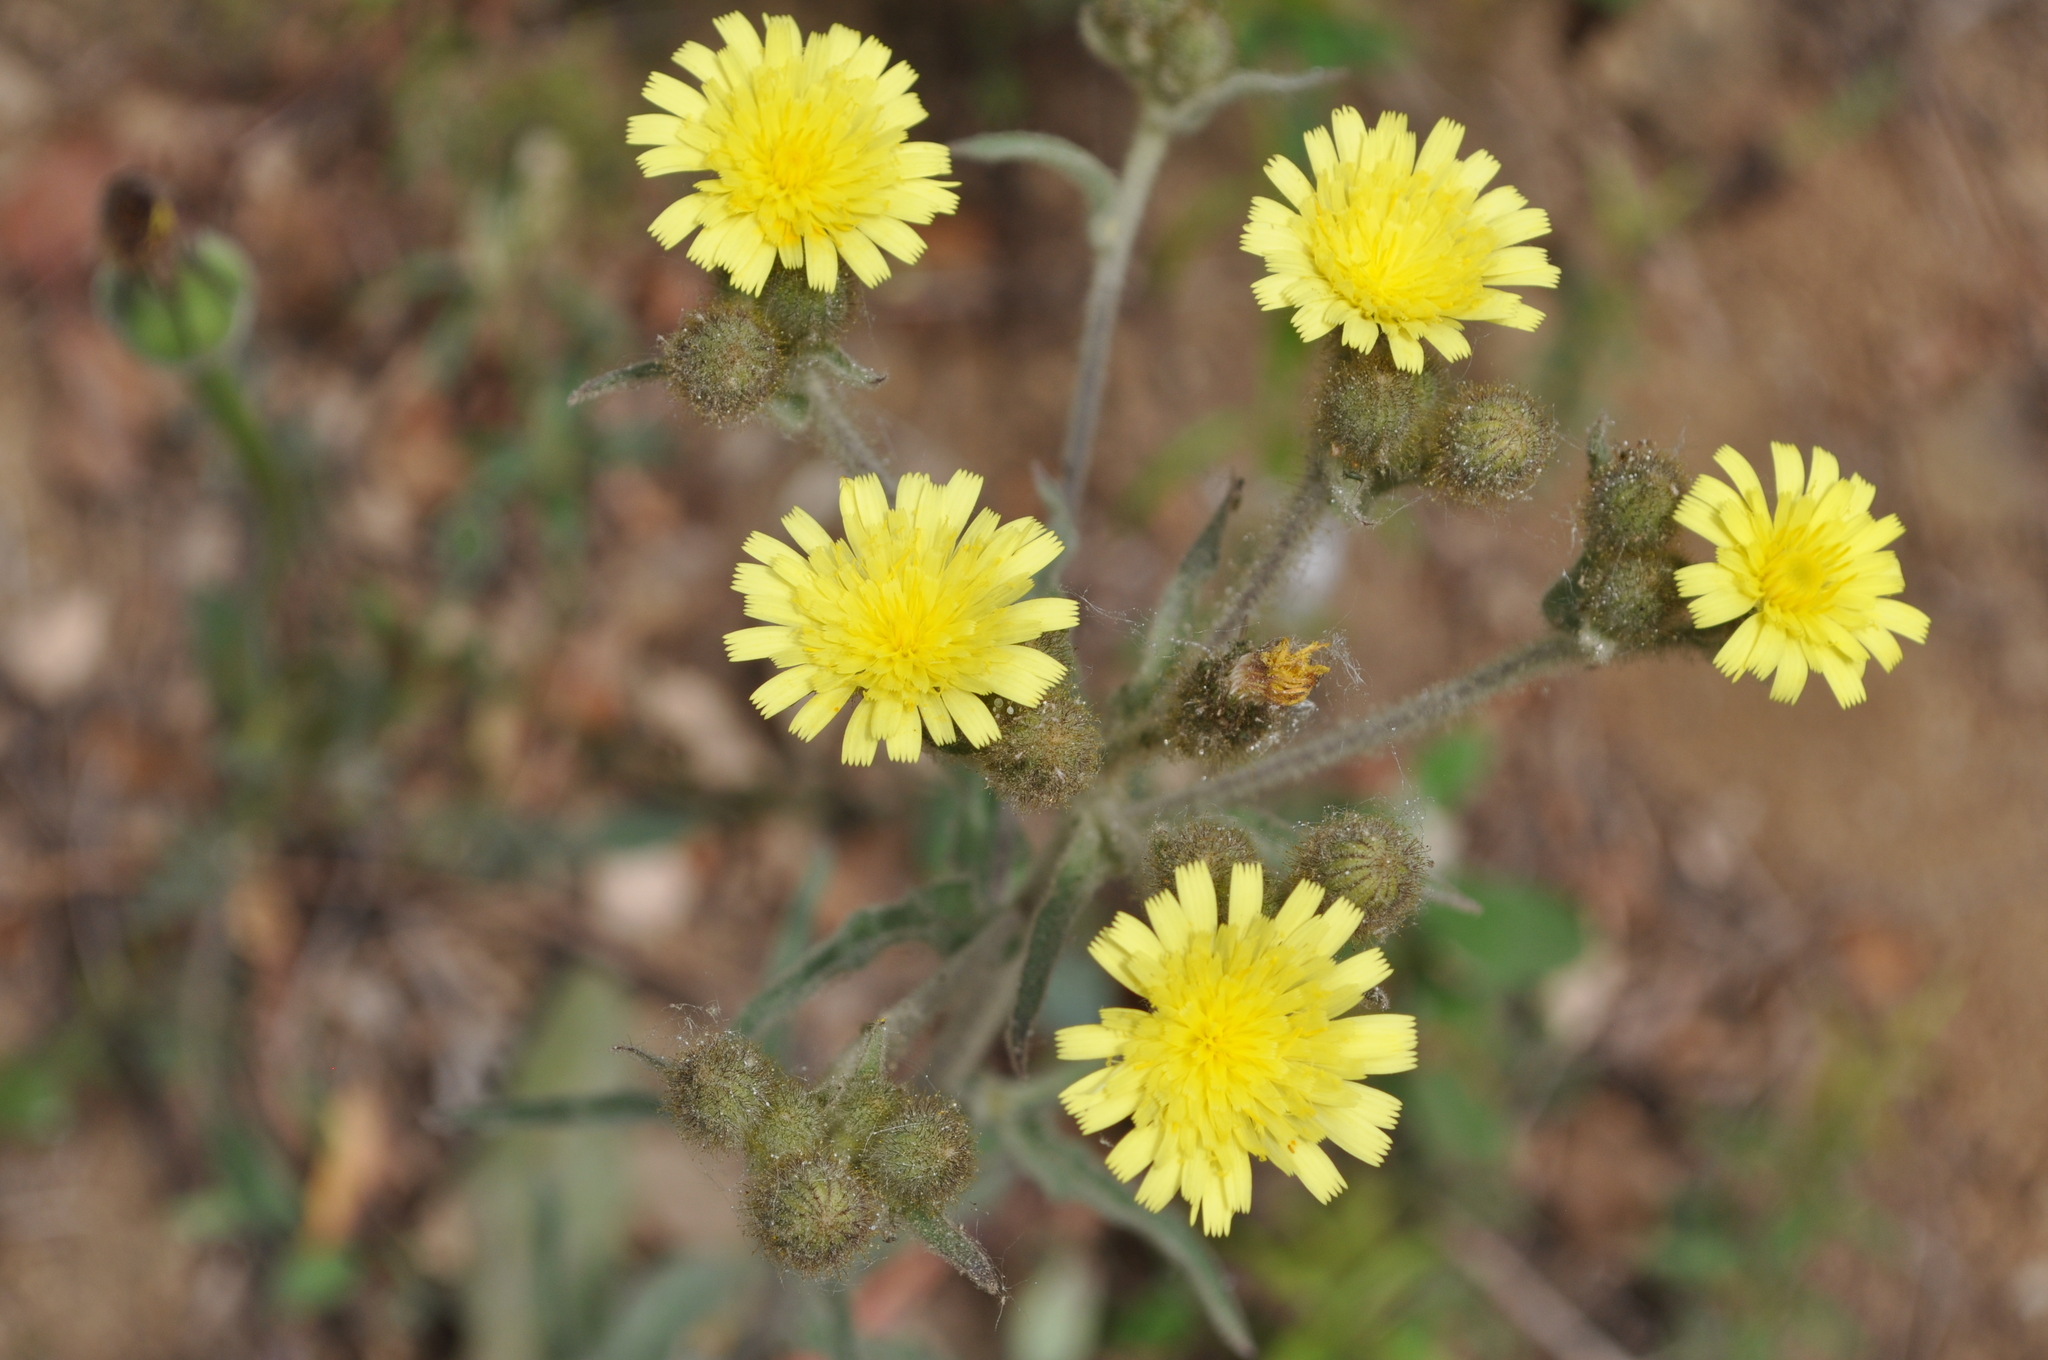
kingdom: Plantae
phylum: Tracheophyta
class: Magnoliopsida
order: Asterales
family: Asteraceae
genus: Andryala
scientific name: Andryala integrifolia
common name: Common andryala
